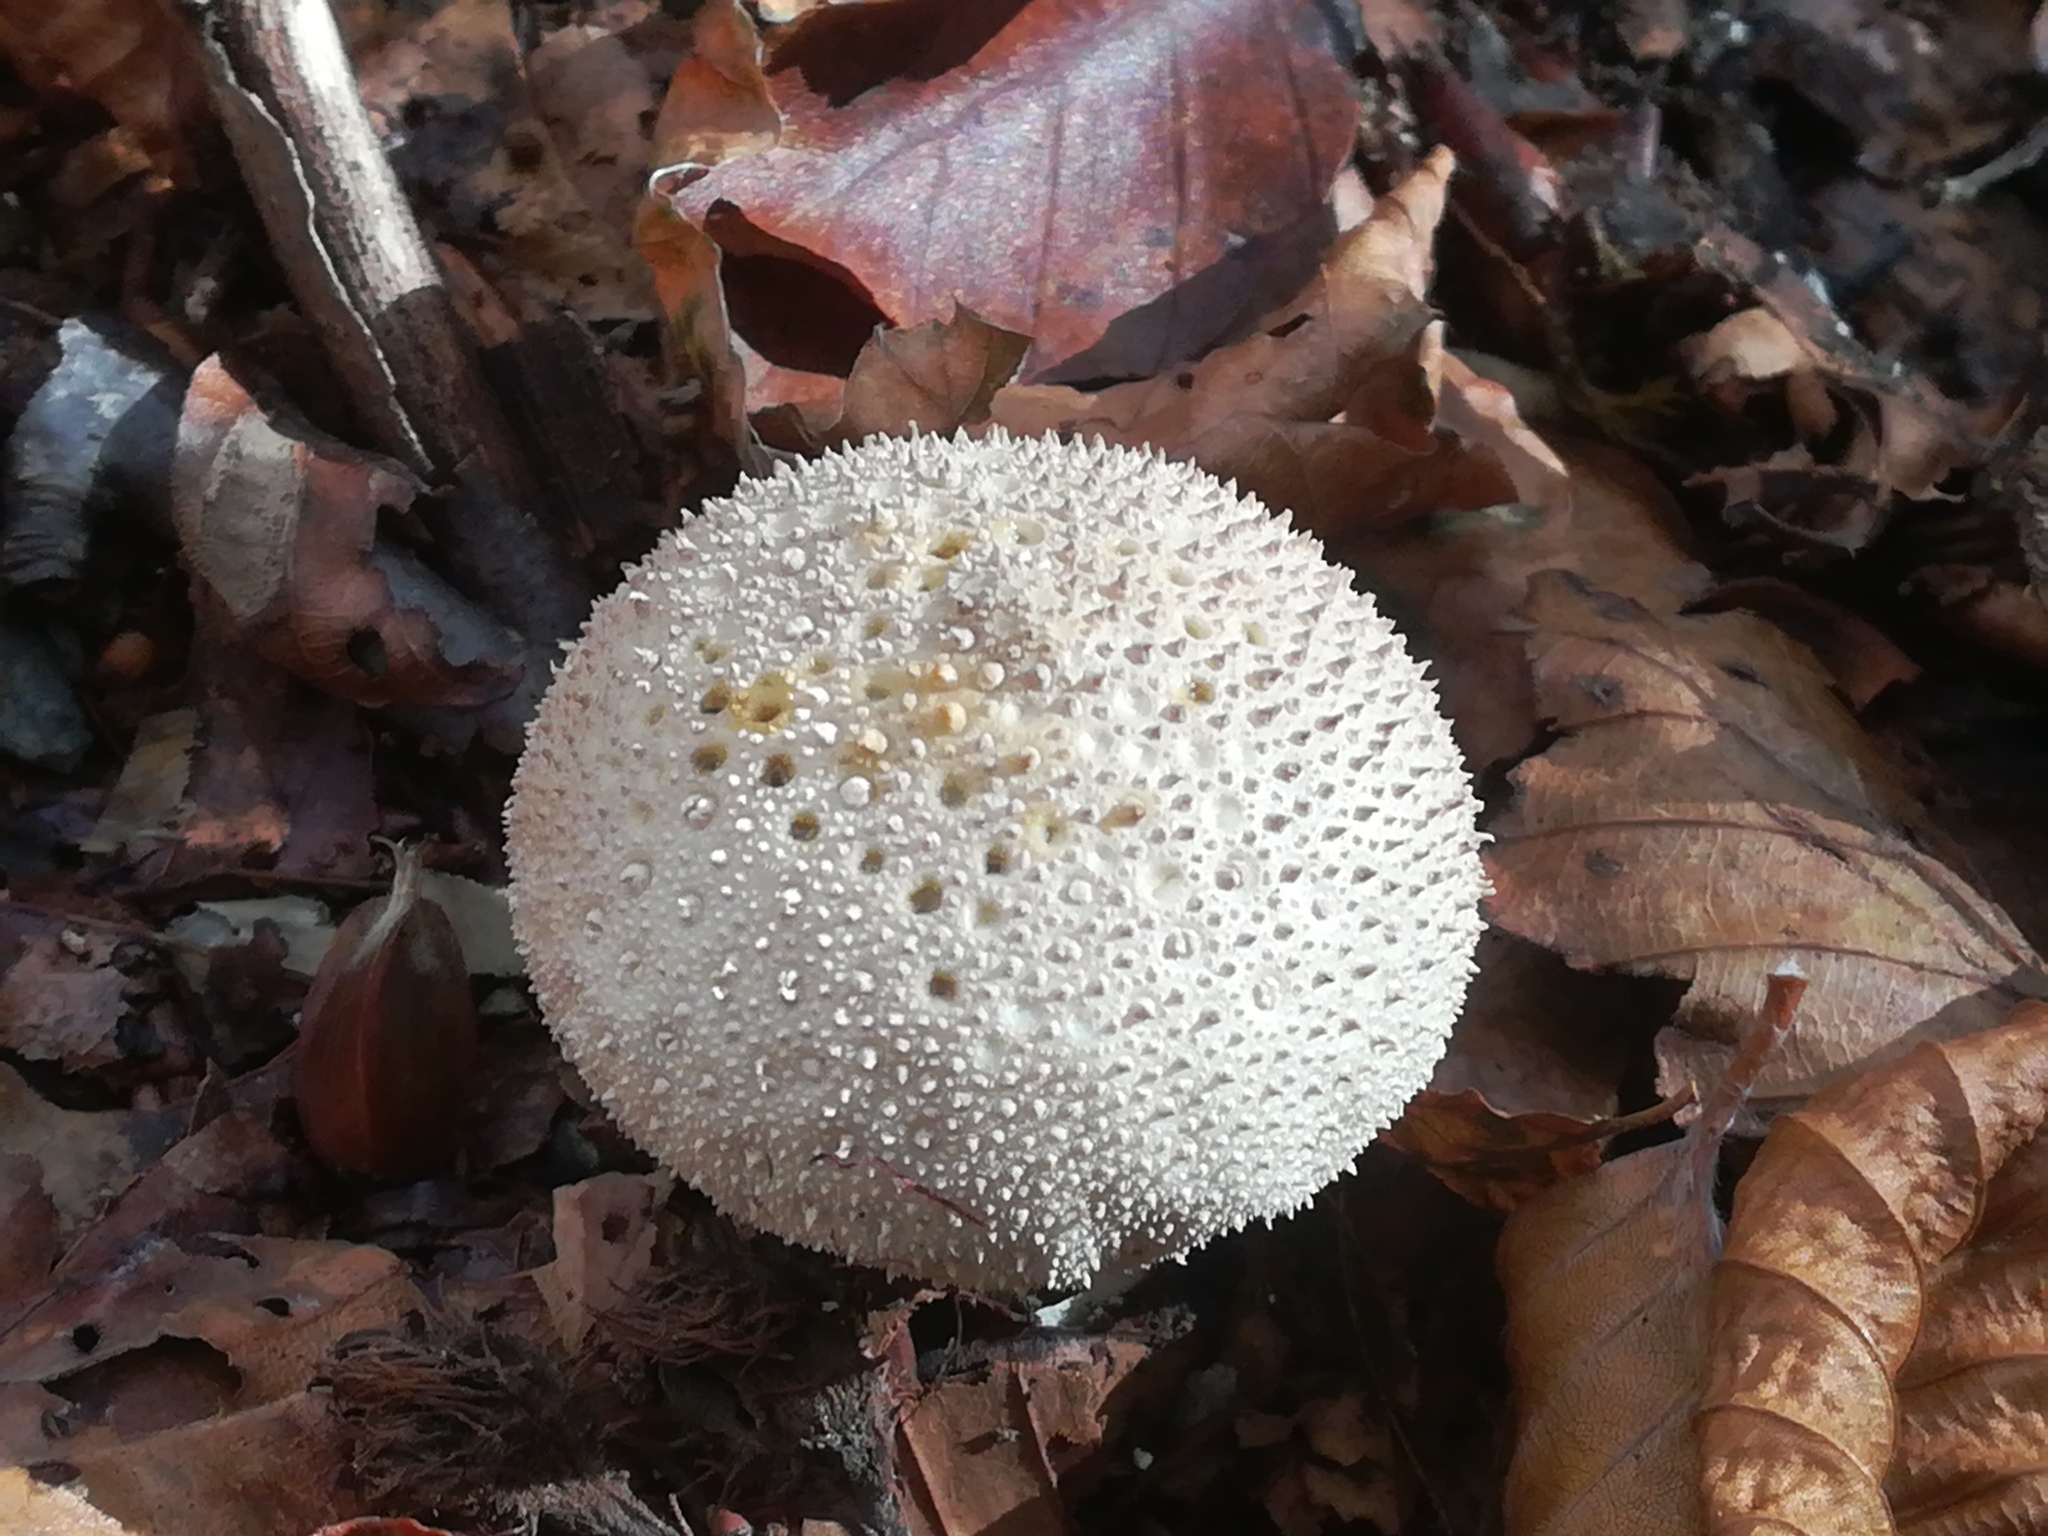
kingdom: Fungi
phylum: Basidiomycota
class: Agaricomycetes
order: Agaricales
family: Lycoperdaceae
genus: Lycoperdon
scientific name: Lycoperdon perlatum
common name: Common puffball
